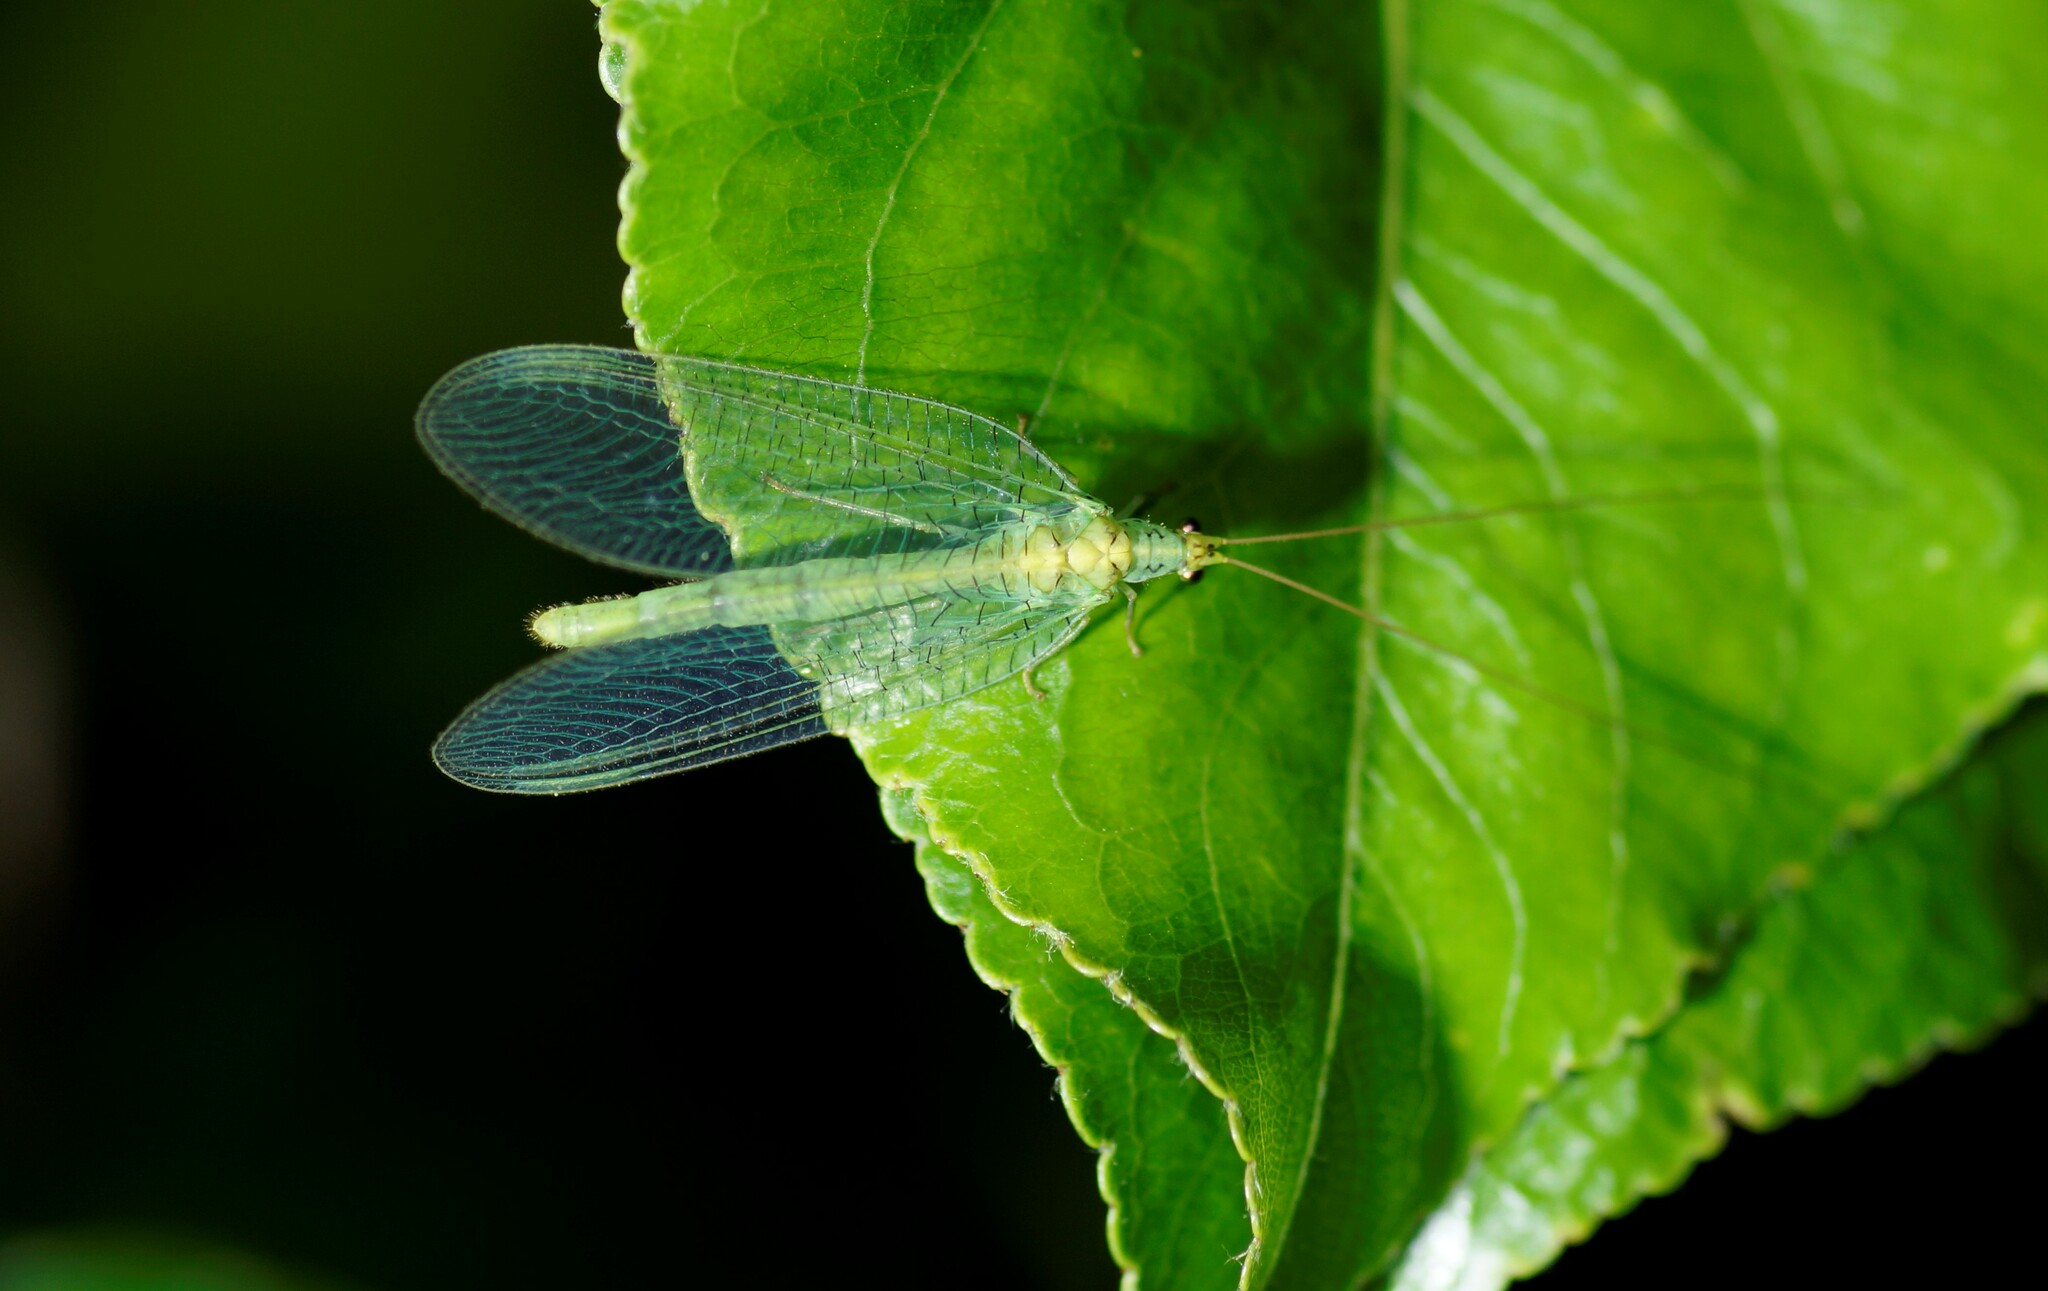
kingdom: Animalia
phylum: Arthropoda
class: Insecta
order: Neuroptera
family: Chrysopidae
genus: Pseudomallada
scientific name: Pseudomallada edwardsi
